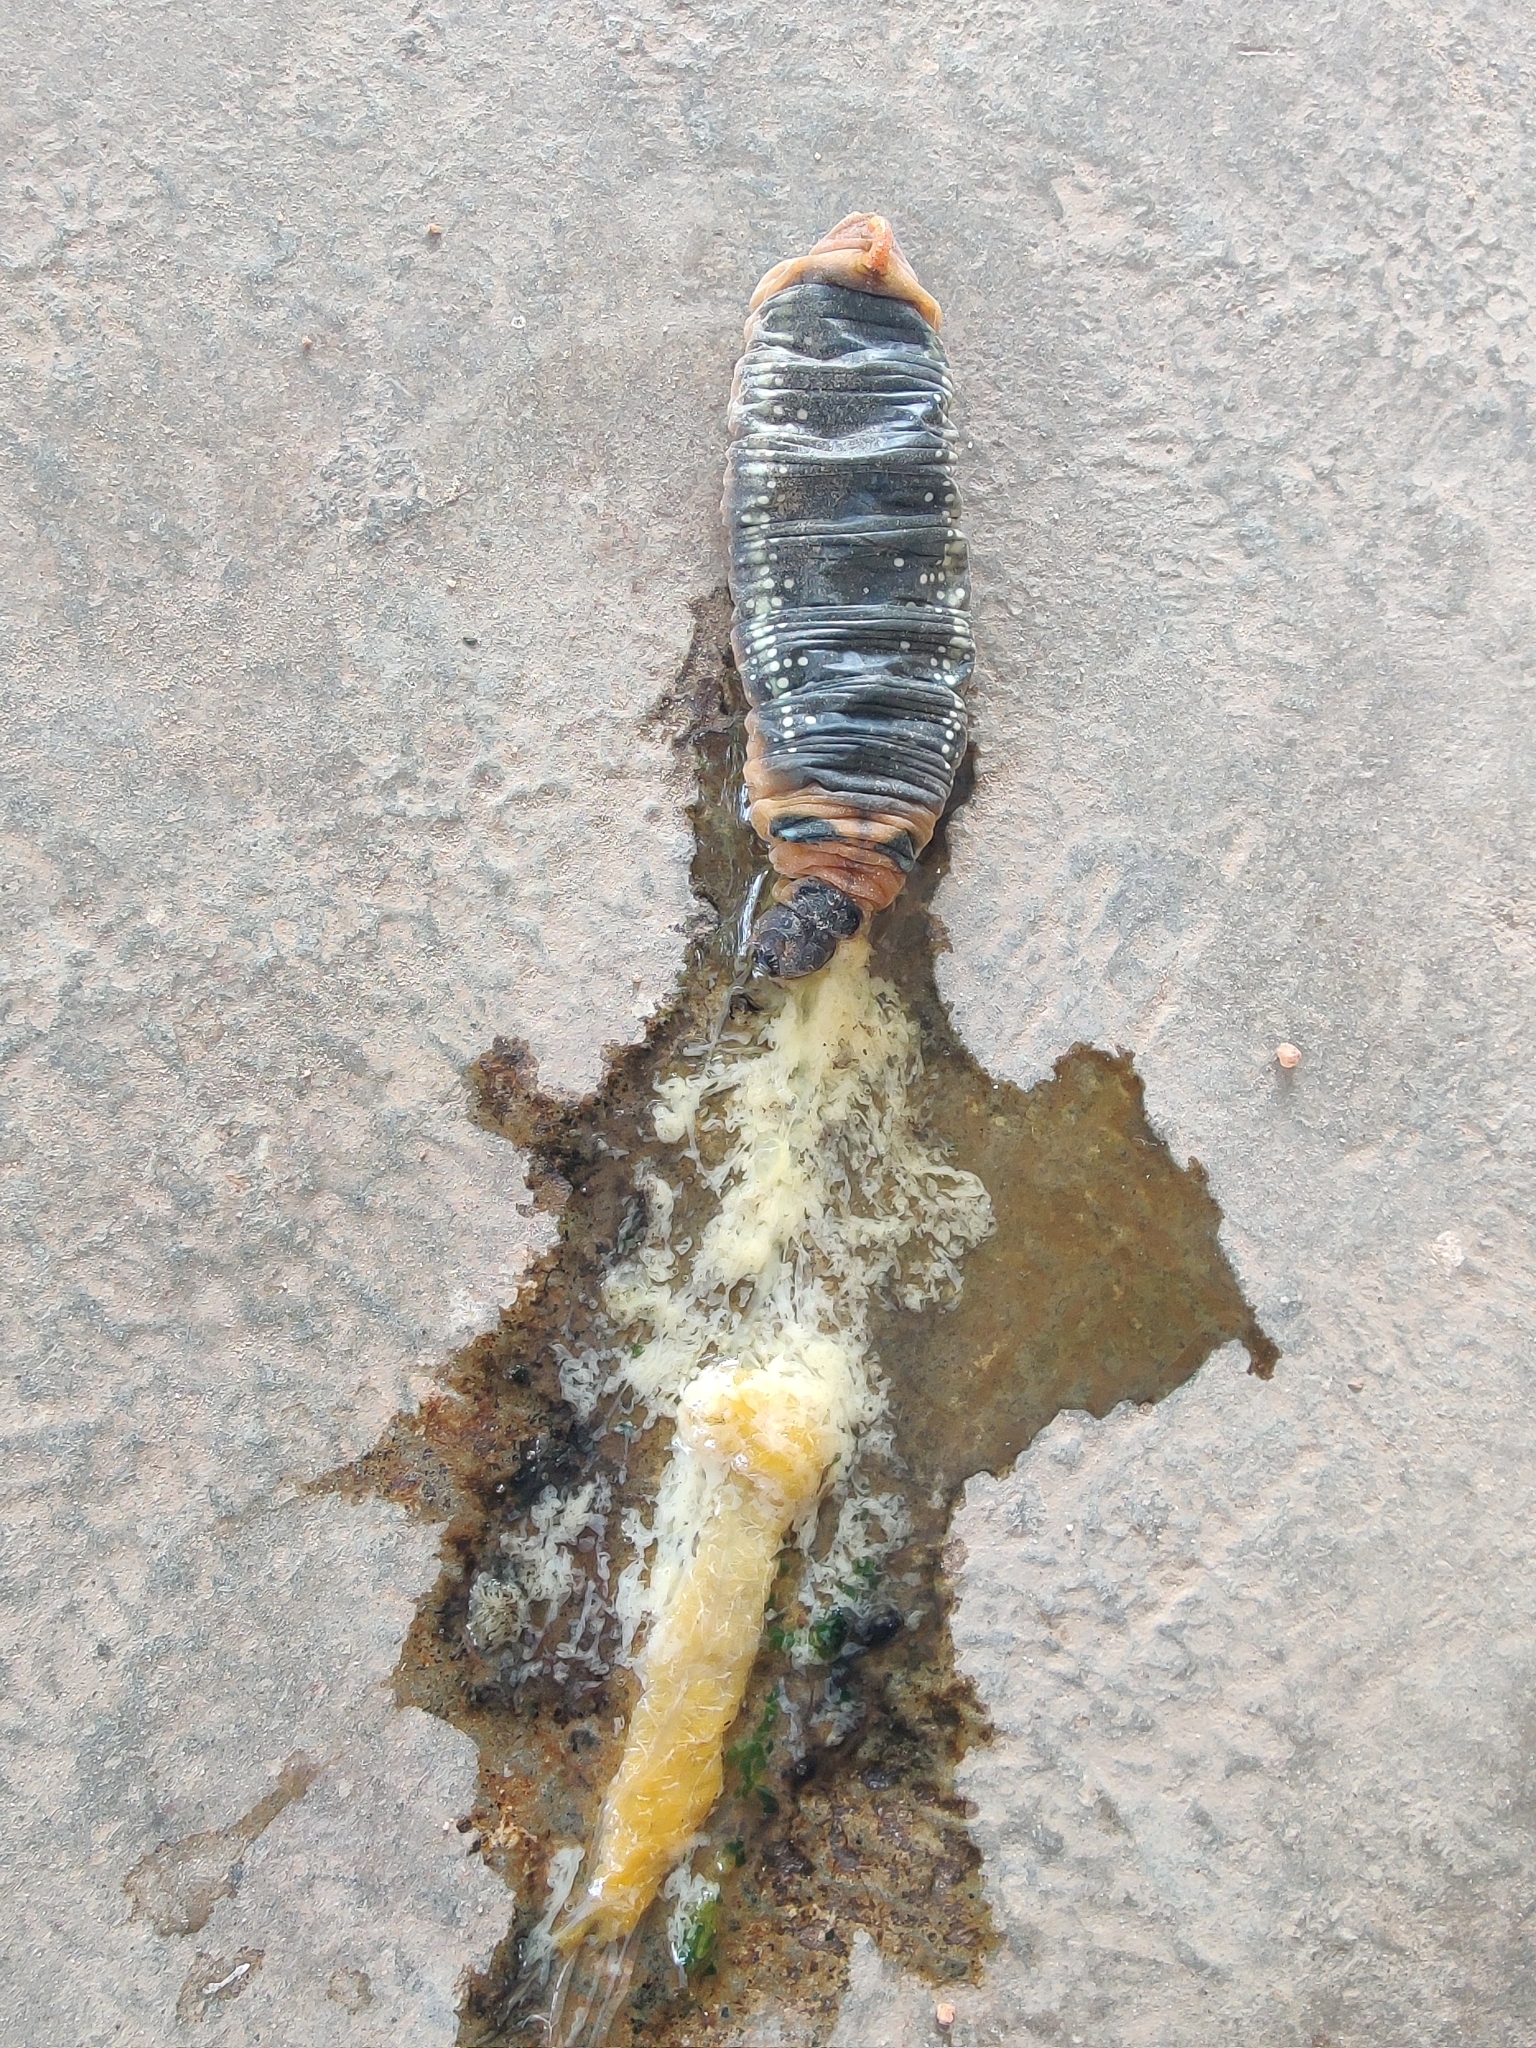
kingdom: Animalia
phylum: Arthropoda
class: Insecta
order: Lepidoptera
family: Sphingidae
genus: Daphnis
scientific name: Daphnis nerii
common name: Oleander hawk-moth
